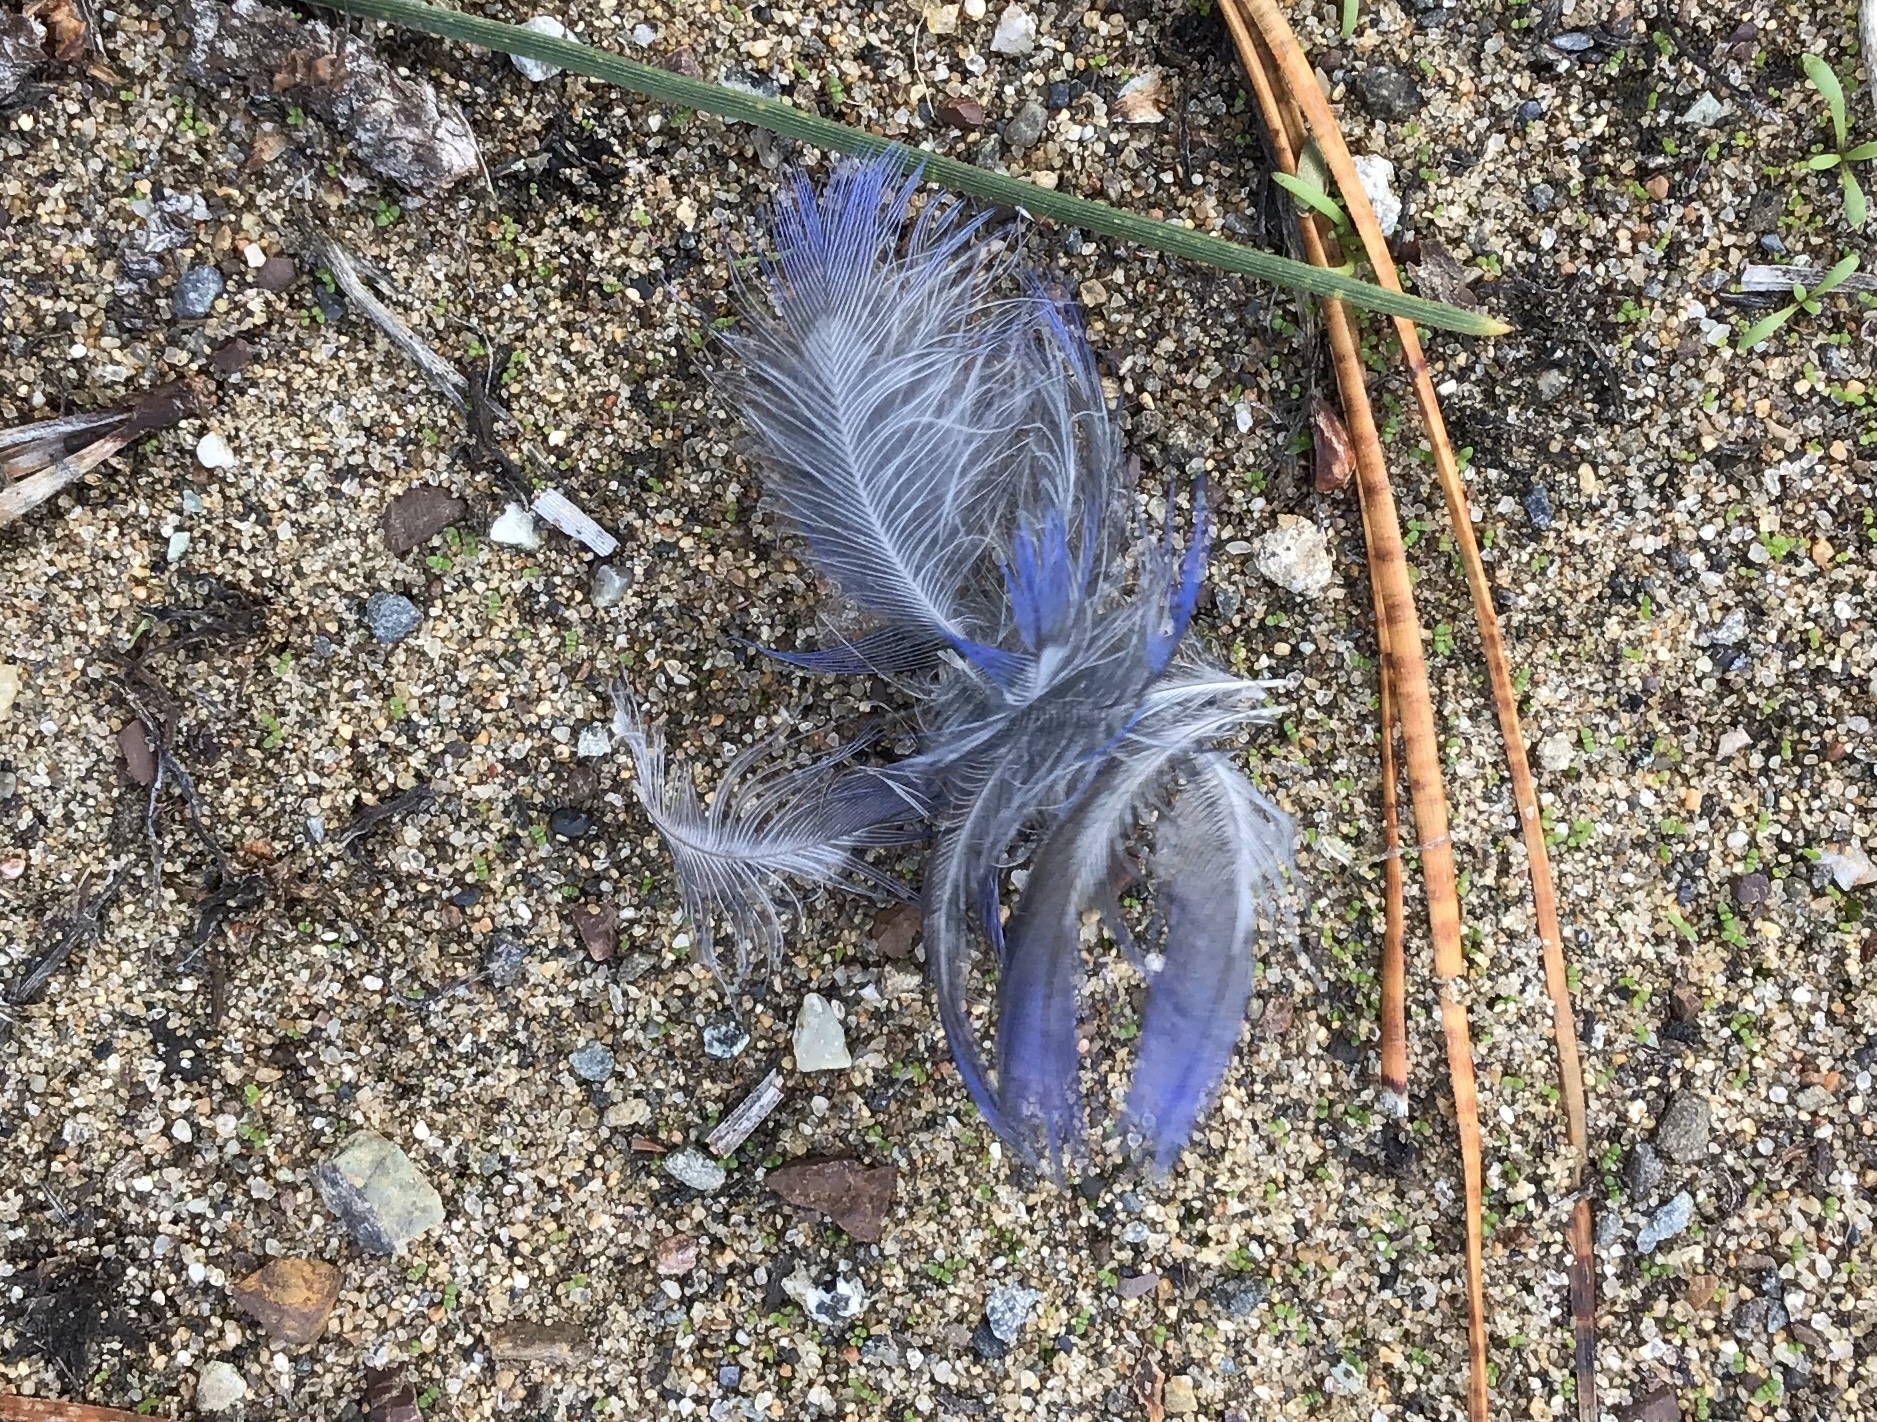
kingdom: Animalia
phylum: Chordata
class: Aves
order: Passeriformes
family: Turdidae
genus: Sialia
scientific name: Sialia mexicana
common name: Western bluebird
